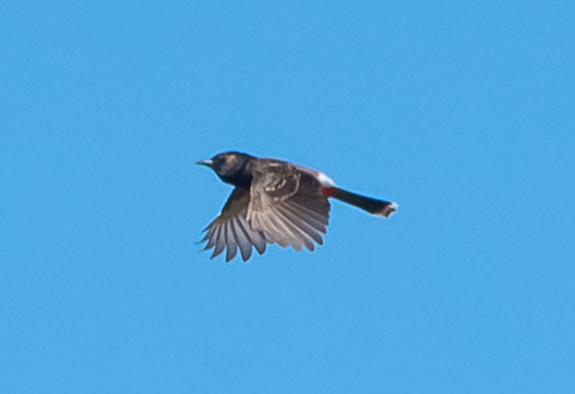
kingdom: Animalia
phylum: Chordata
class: Aves
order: Passeriformes
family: Pycnonotidae
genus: Pycnonotus
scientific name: Pycnonotus cafer
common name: Red-vented bulbul
